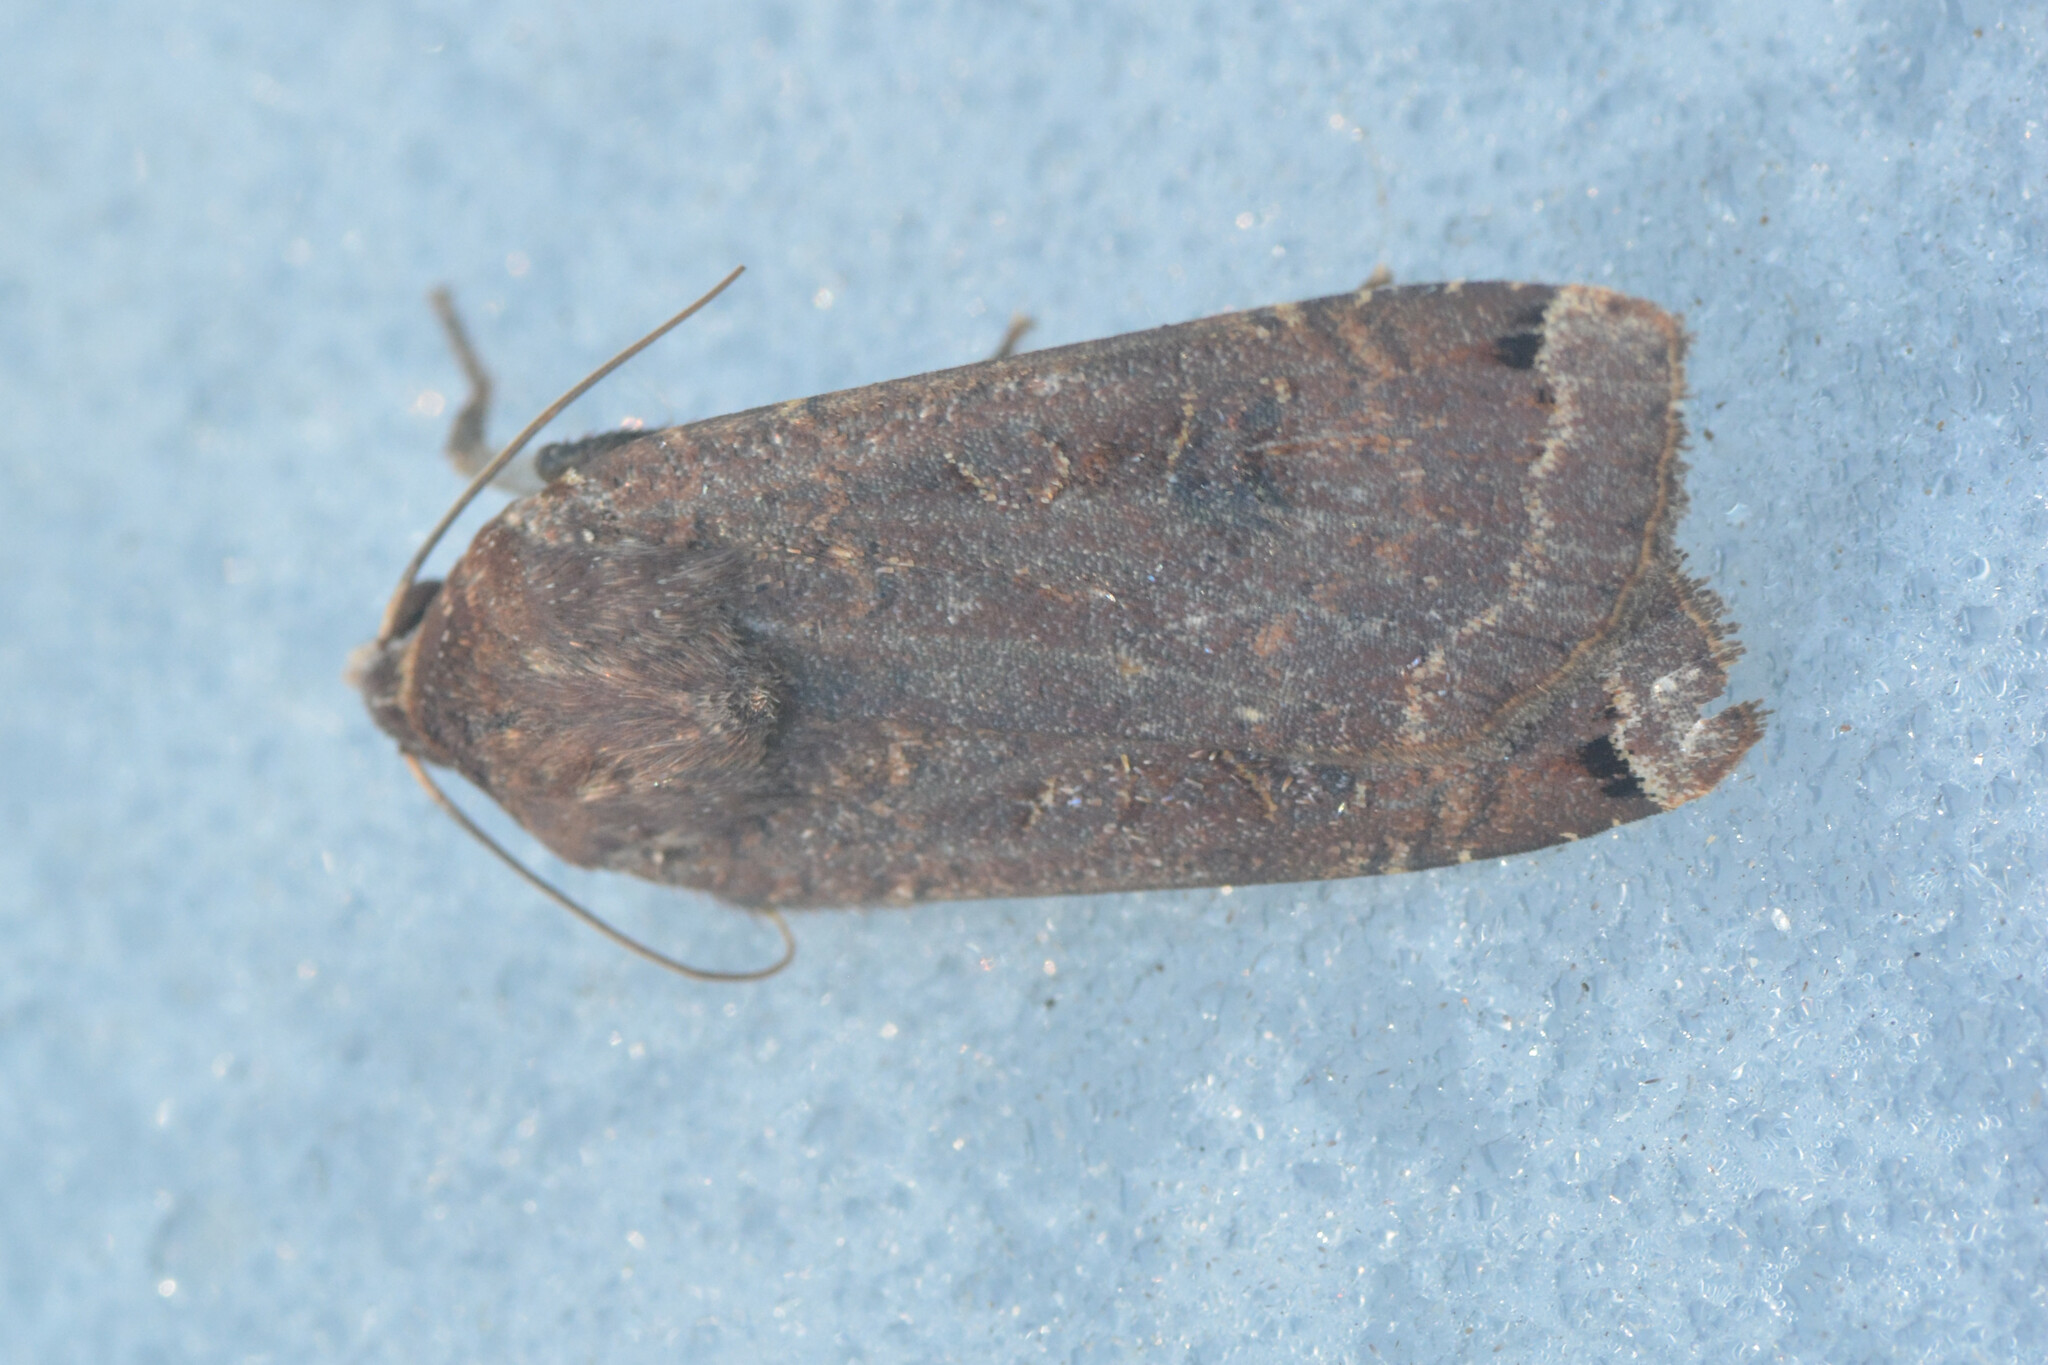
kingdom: Animalia
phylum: Arthropoda
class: Insecta
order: Lepidoptera
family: Noctuidae
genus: Noctua
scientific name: Noctua pronuba
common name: Large yellow underwing
